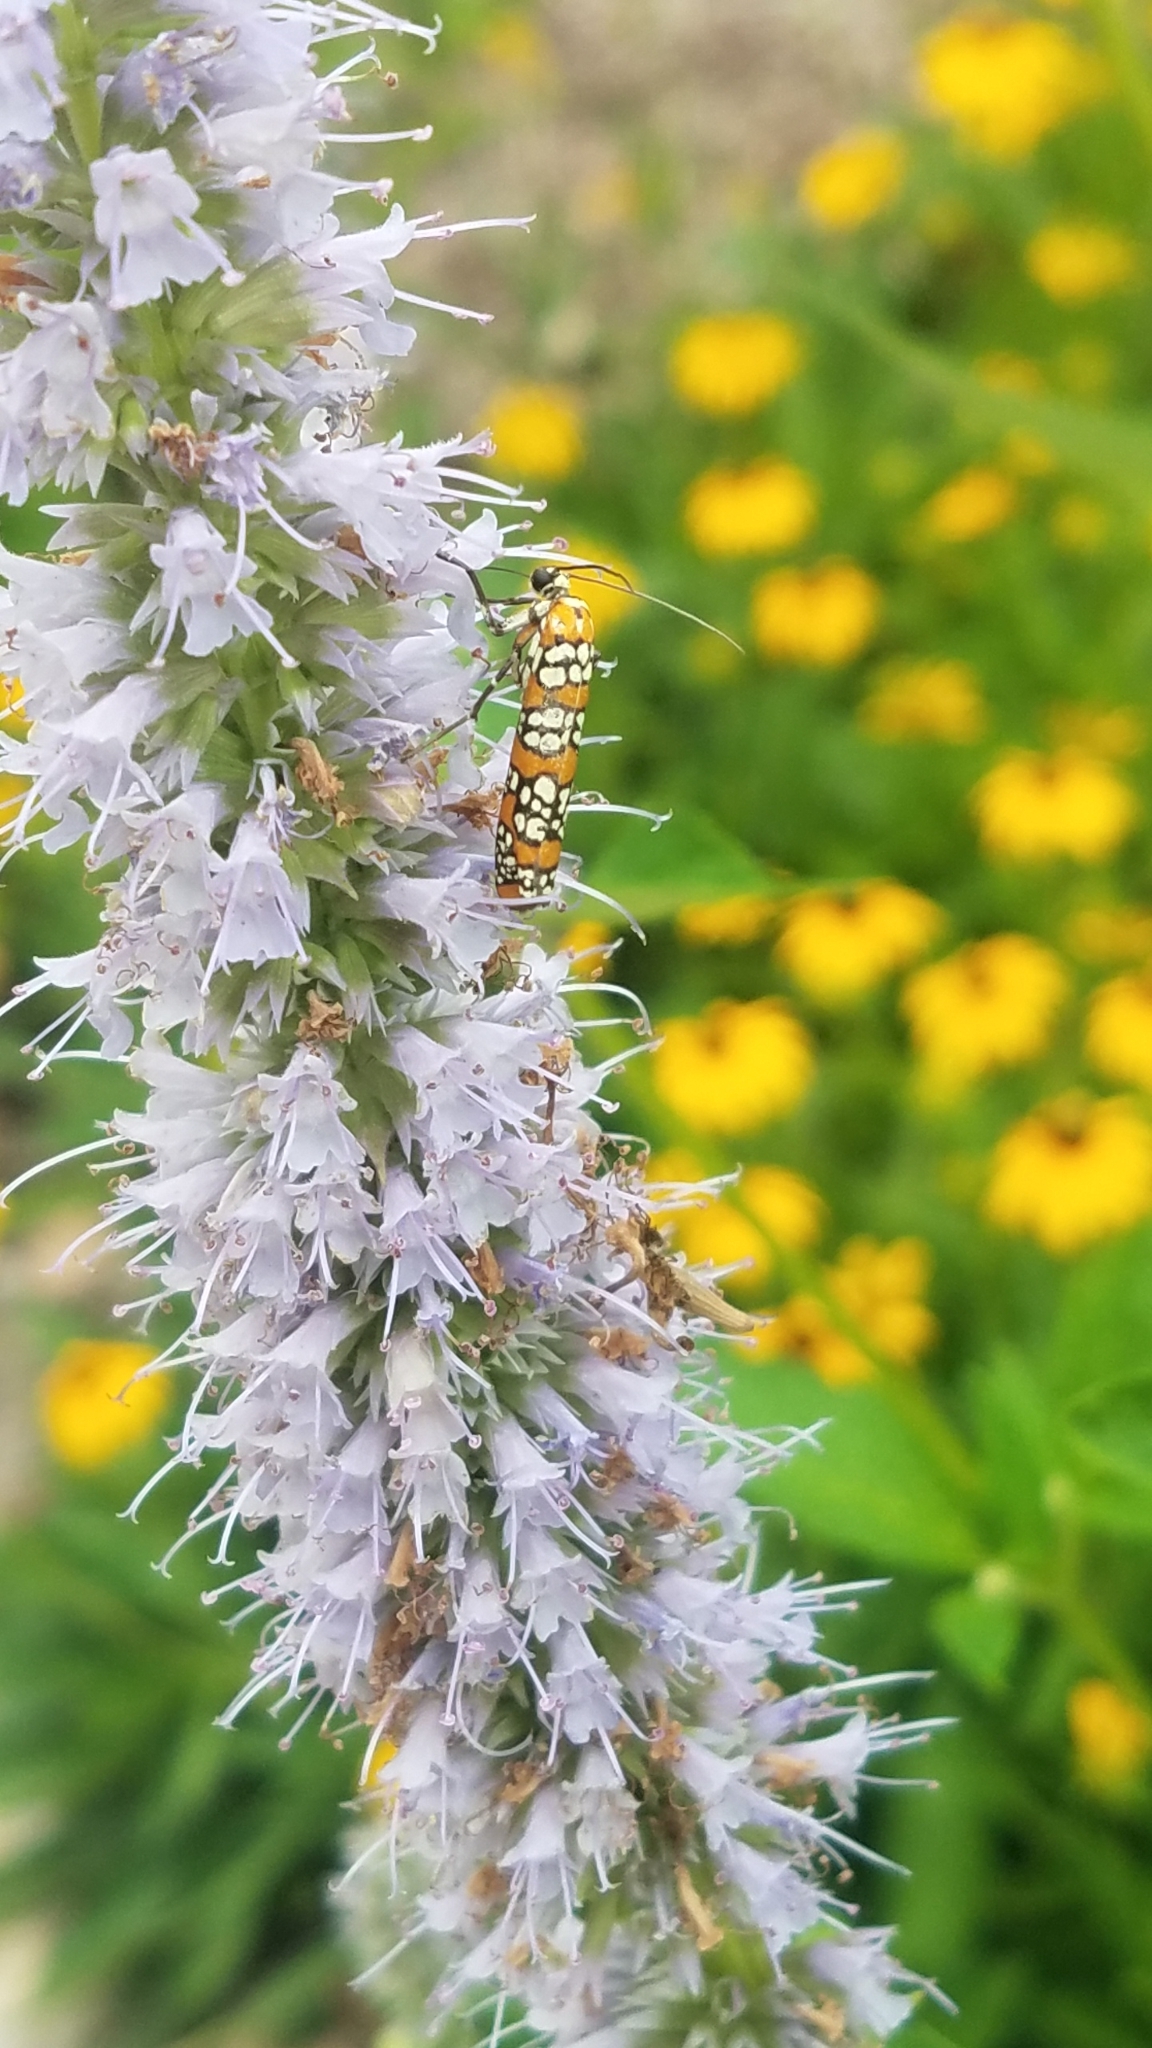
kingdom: Animalia
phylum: Arthropoda
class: Insecta
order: Lepidoptera
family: Attevidae
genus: Atteva
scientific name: Atteva punctella
